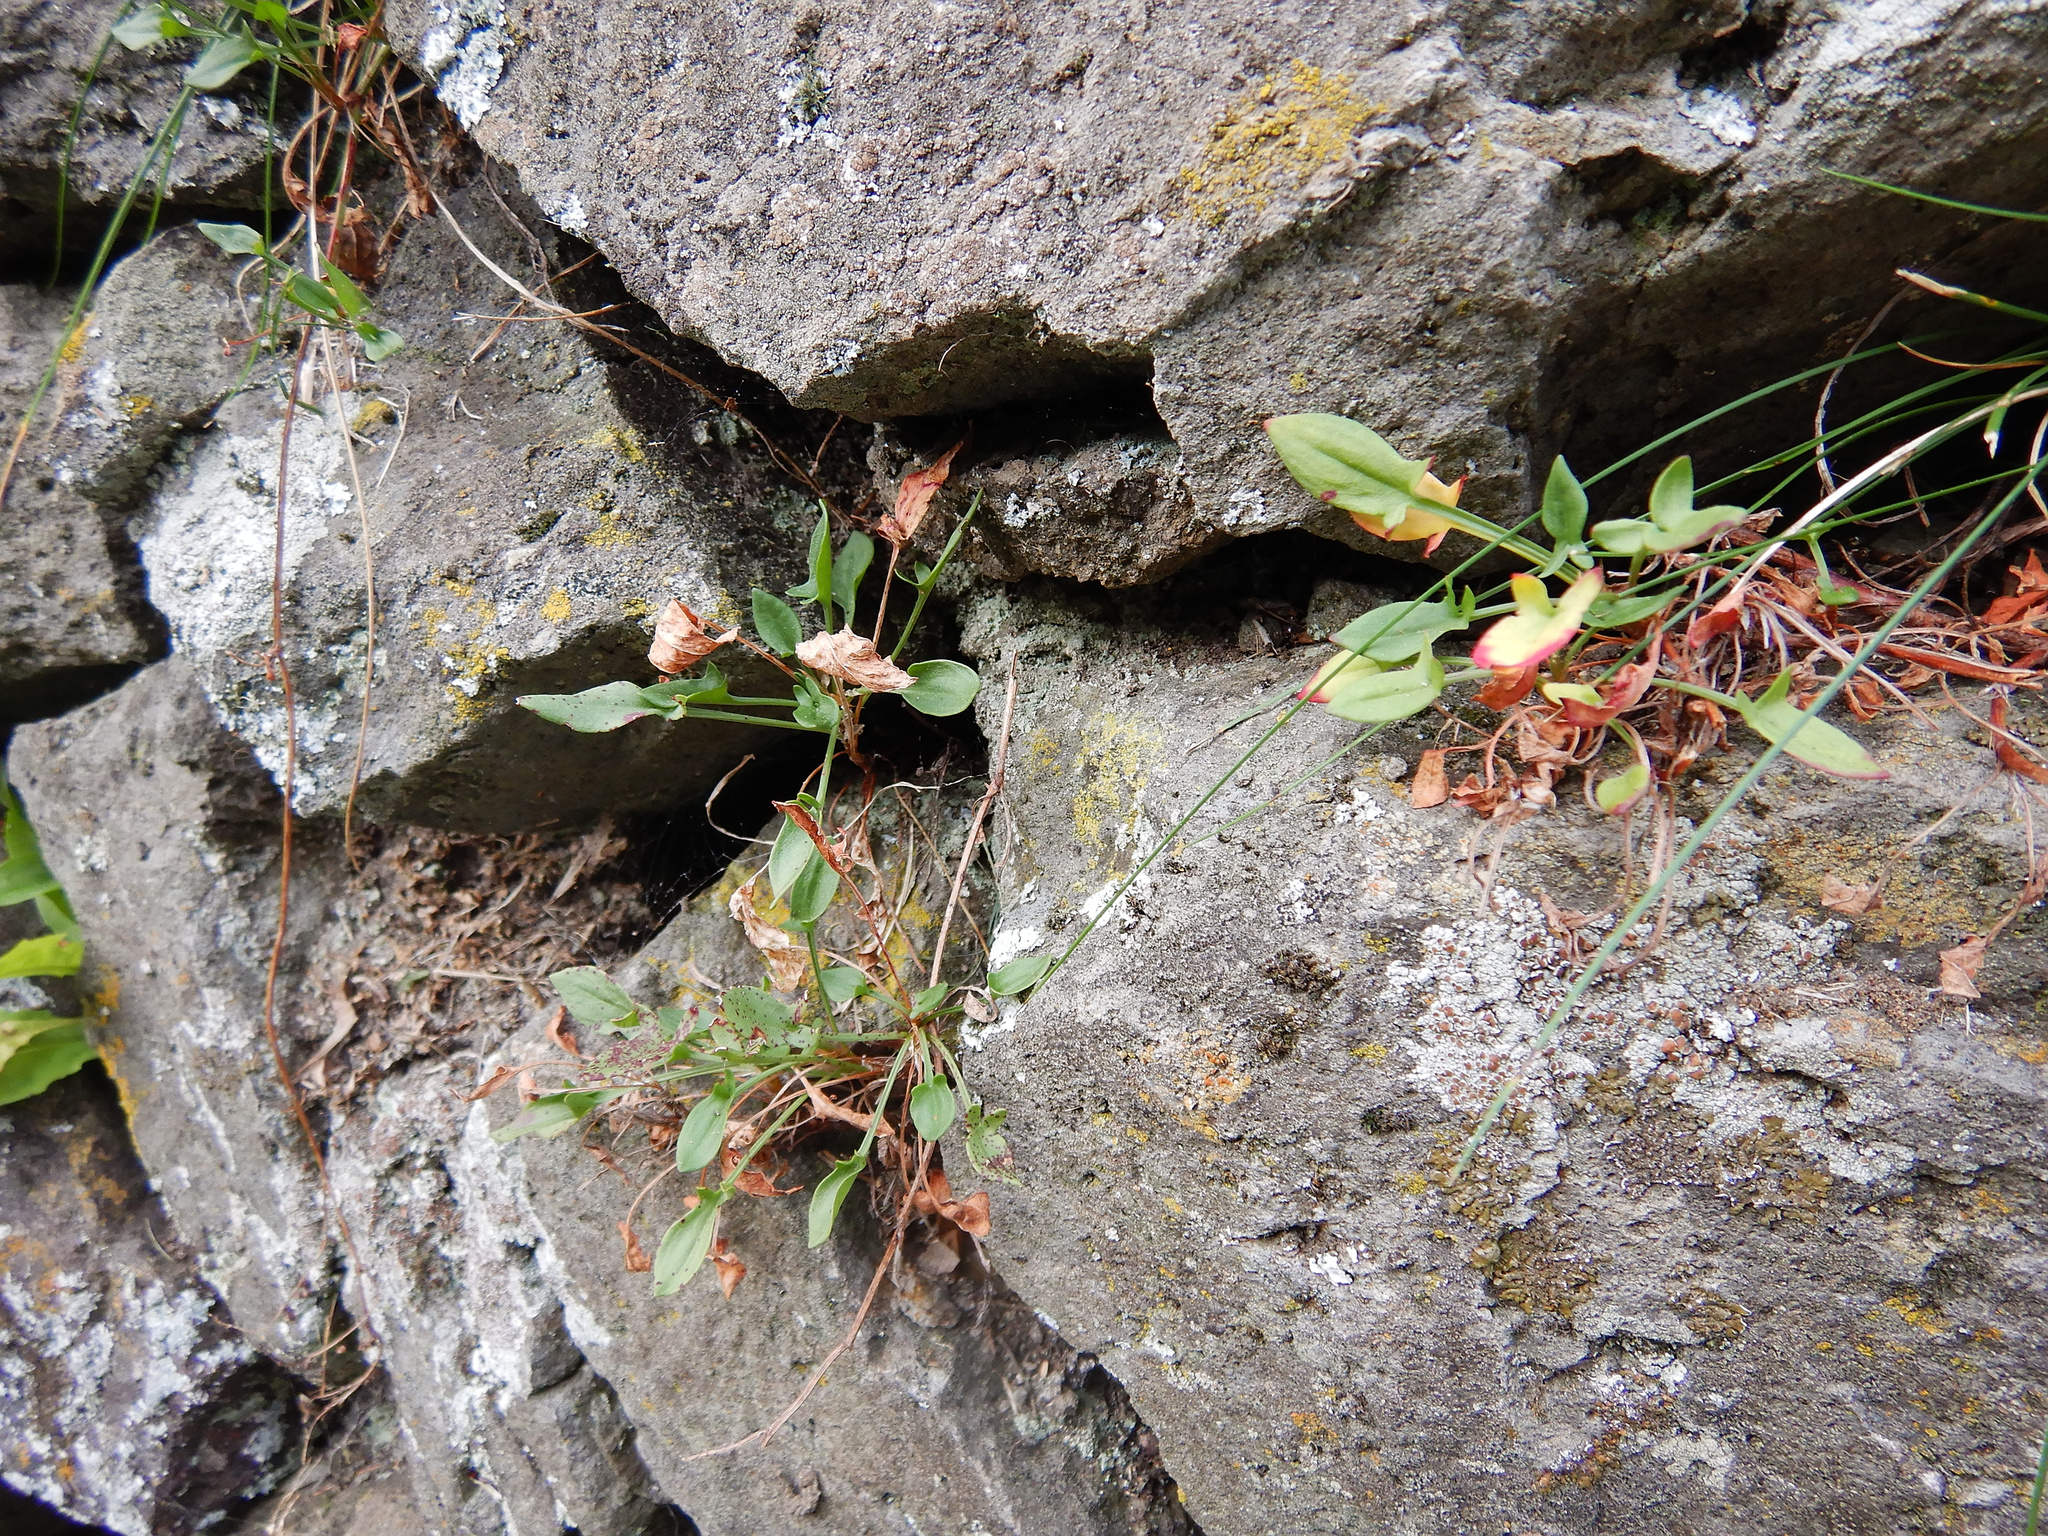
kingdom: Plantae
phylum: Tracheophyta
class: Magnoliopsida
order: Caryophyllales
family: Polygonaceae
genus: Rumex
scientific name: Rumex acetosella
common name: Common sheep sorrel
